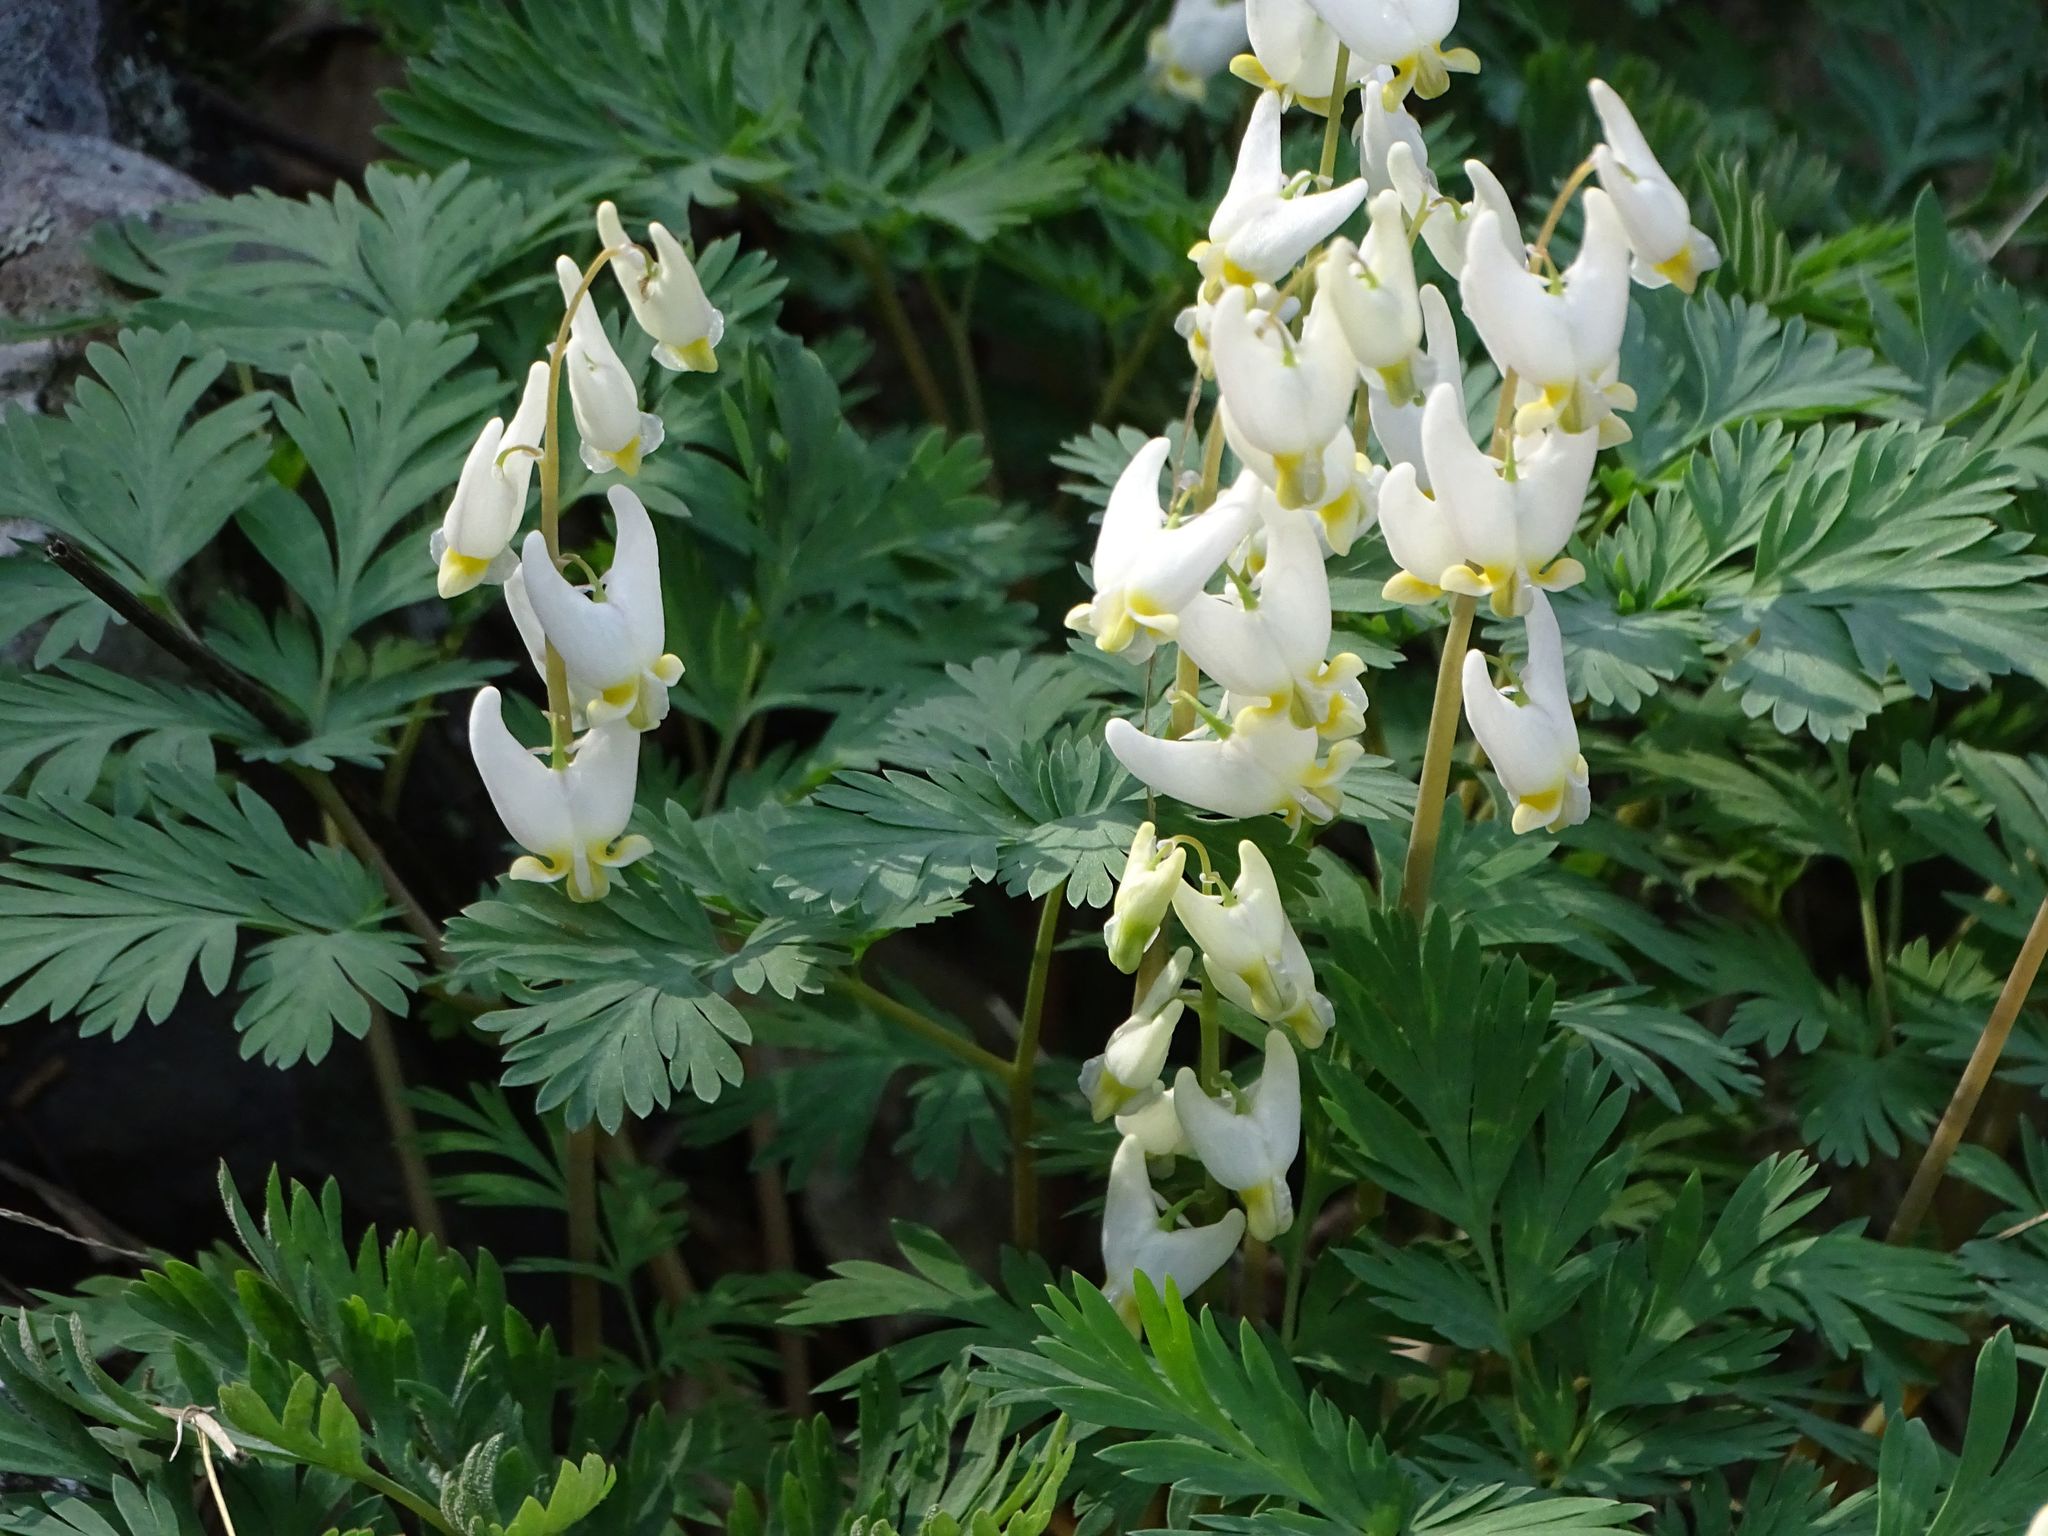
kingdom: Plantae
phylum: Tracheophyta
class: Magnoliopsida
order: Ranunculales
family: Papaveraceae
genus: Dicentra
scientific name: Dicentra cucullaria
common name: Dutchman's breeches
